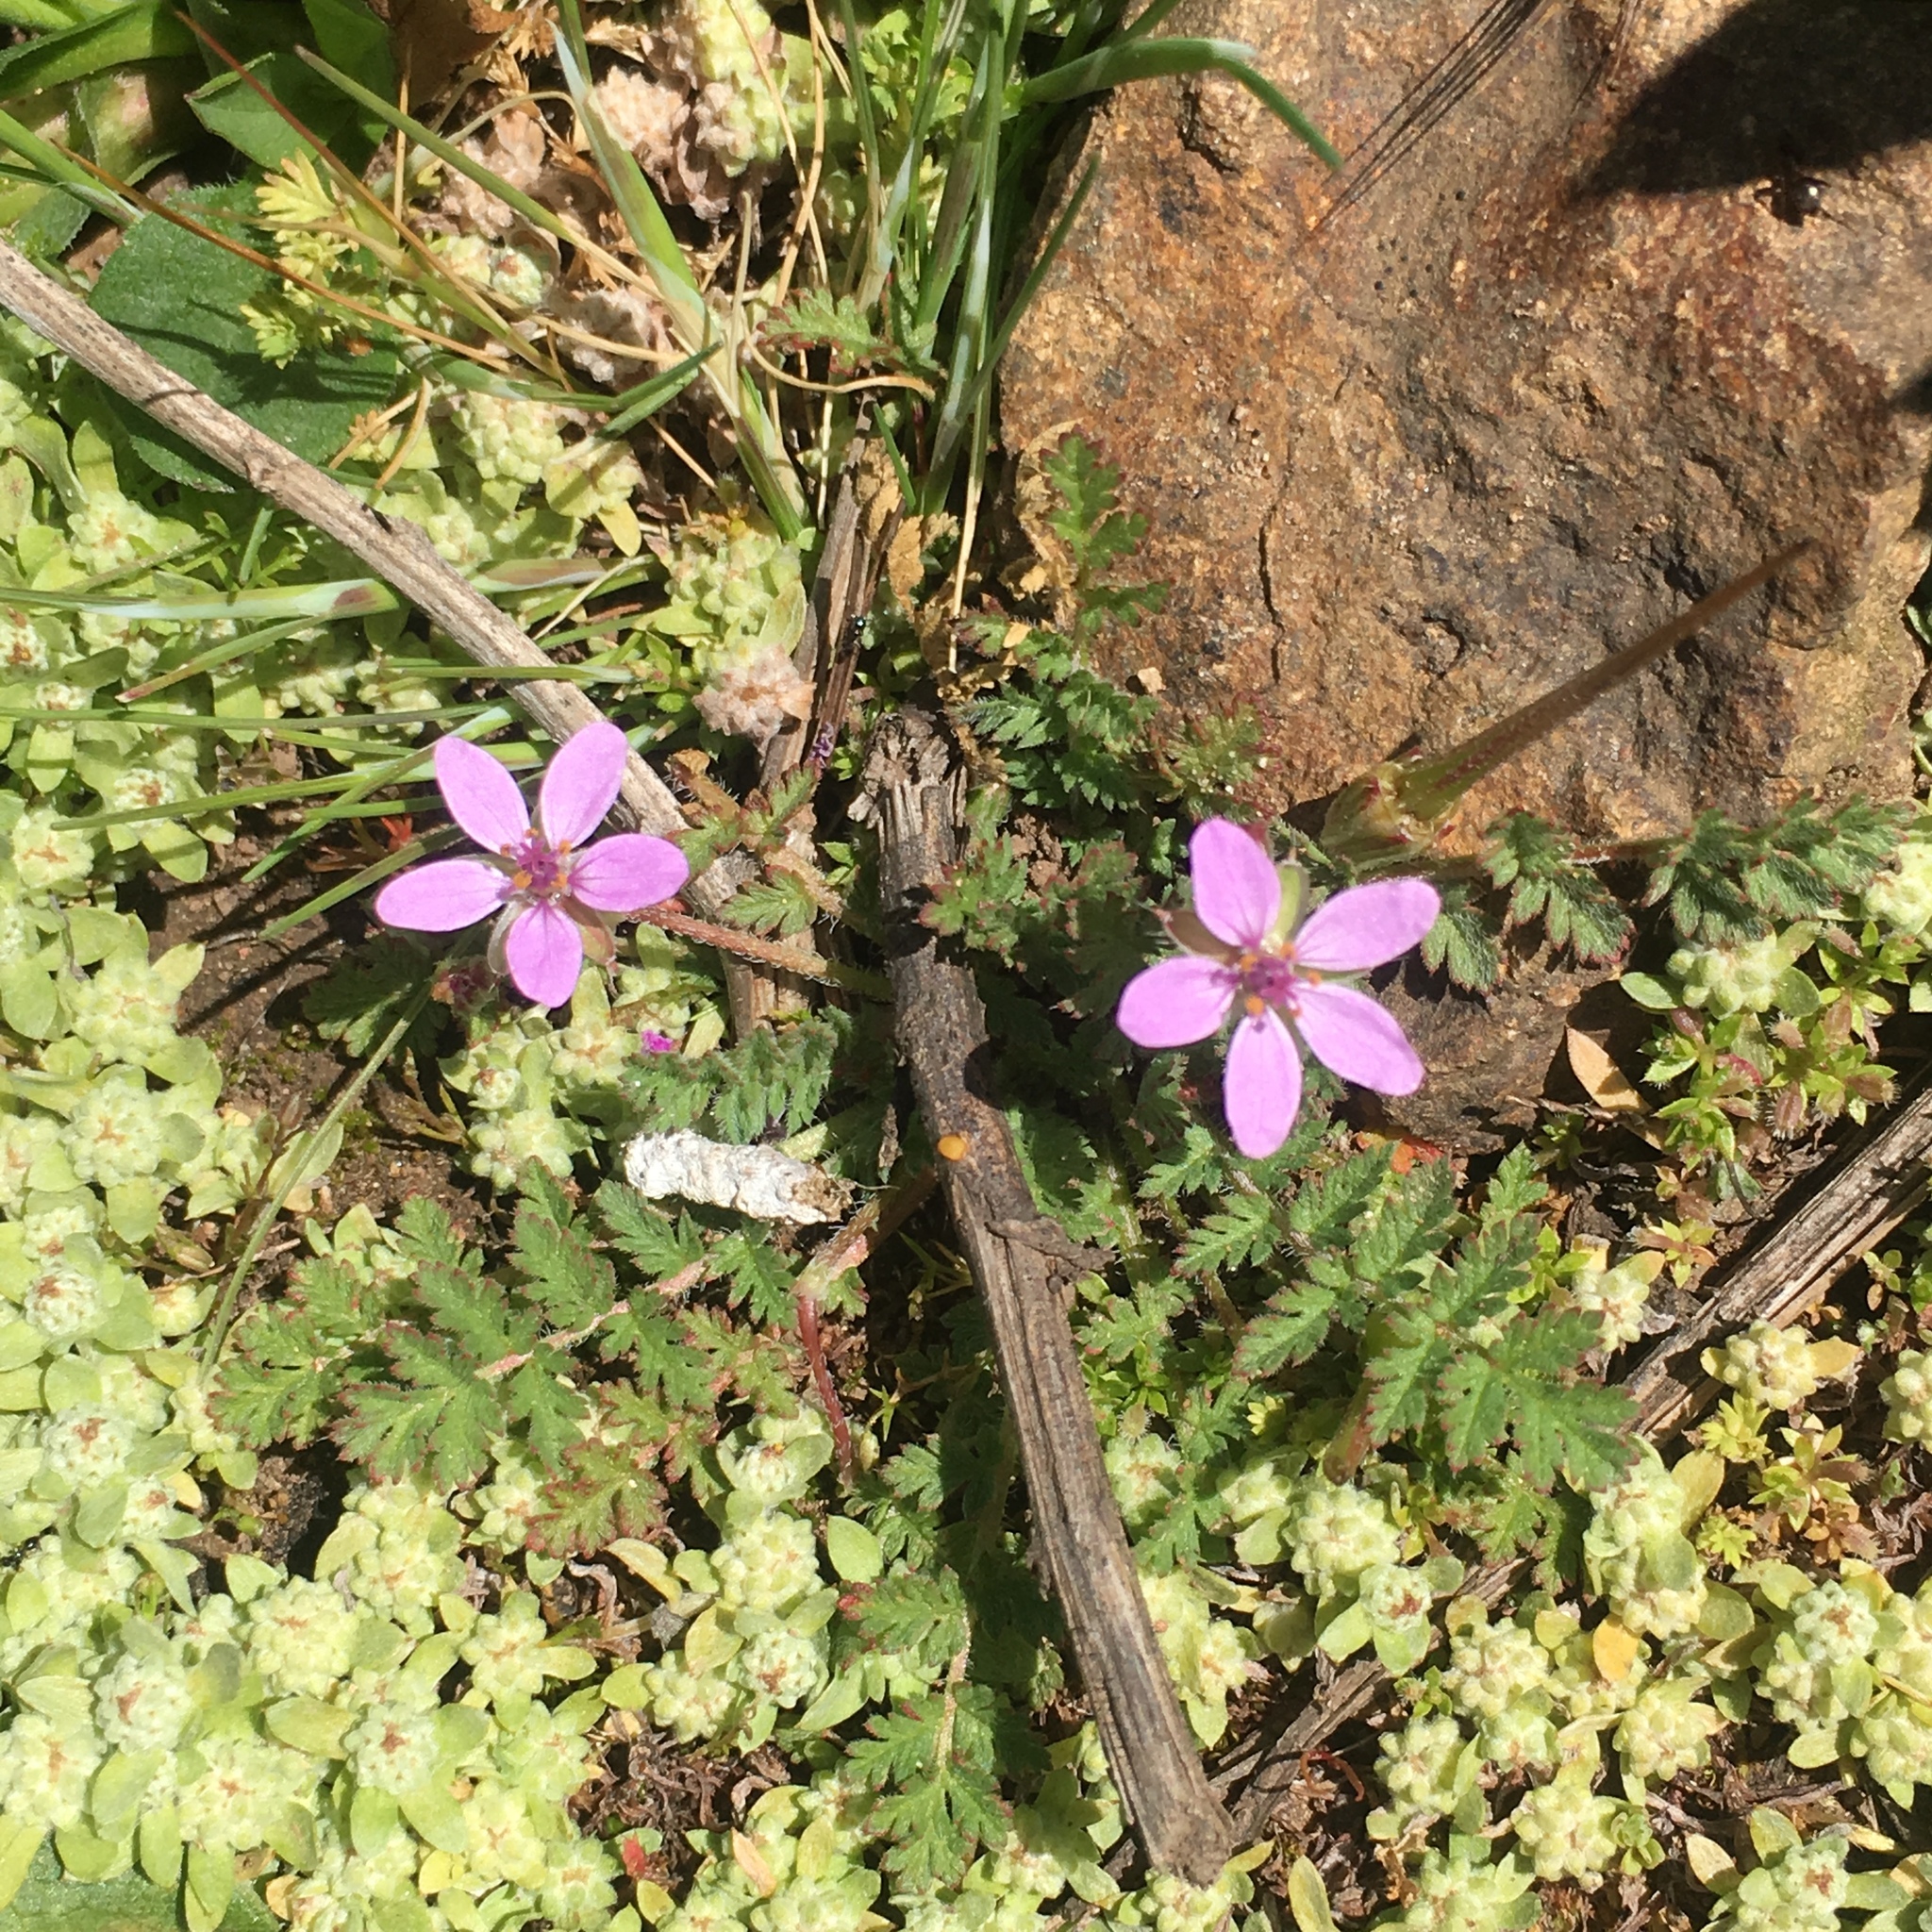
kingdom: Plantae
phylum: Tracheophyta
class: Magnoliopsida
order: Geraniales
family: Geraniaceae
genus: Erodium
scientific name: Erodium cicutarium
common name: Common stork's-bill
